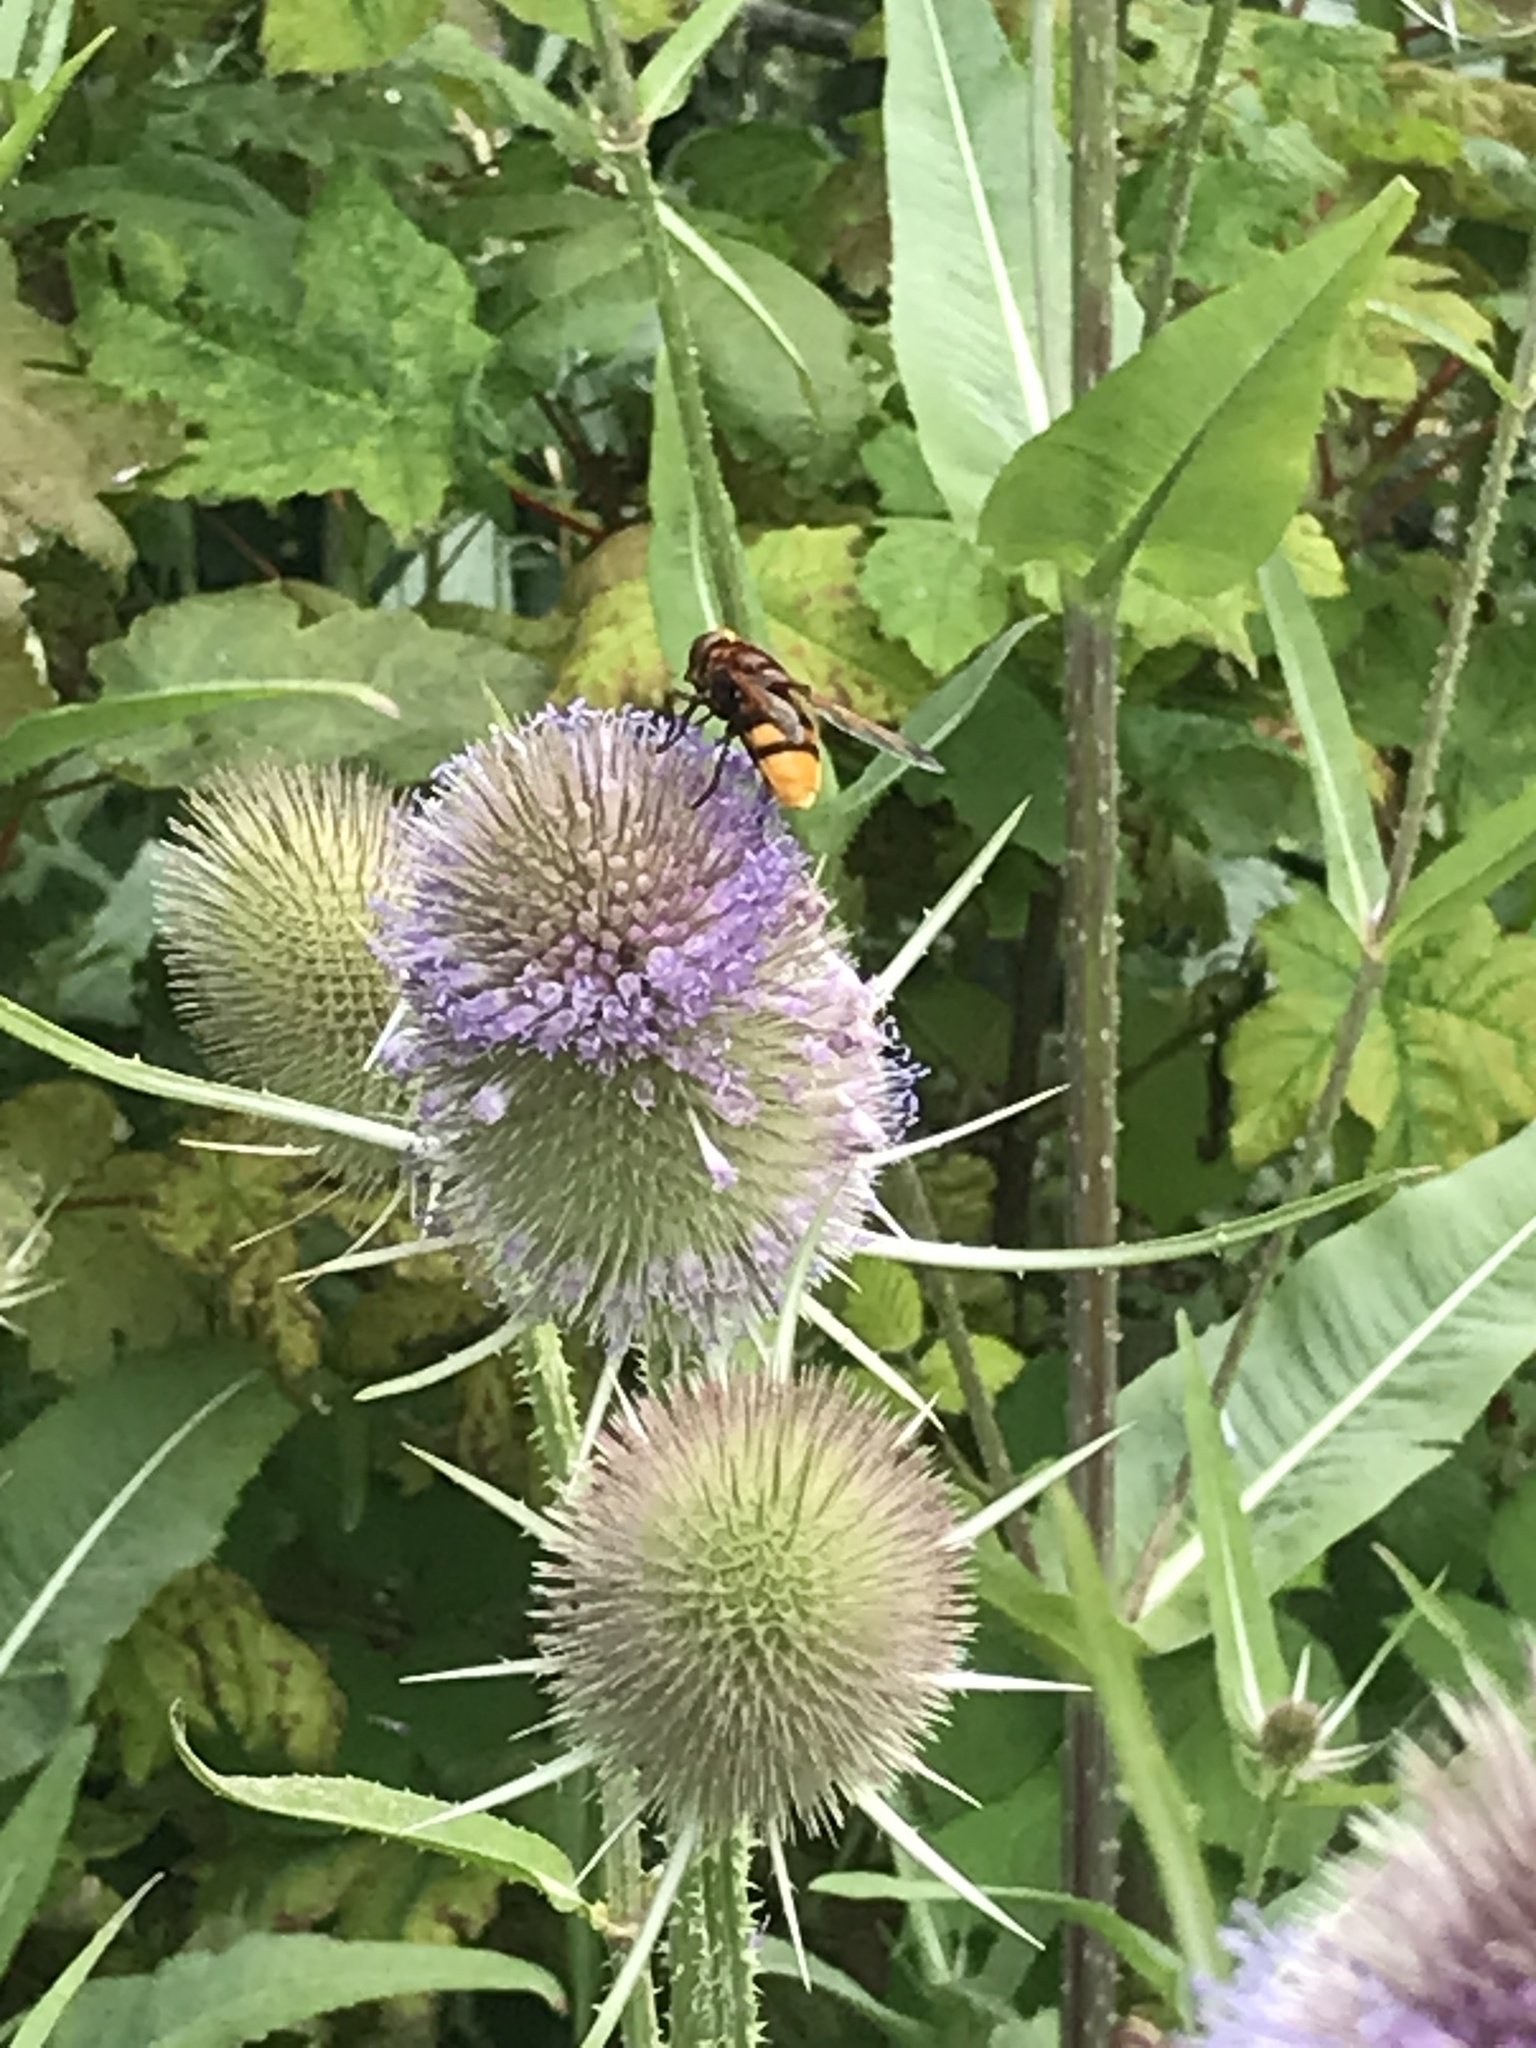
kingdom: Animalia
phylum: Arthropoda
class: Insecta
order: Diptera
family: Syrphidae
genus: Volucella
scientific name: Volucella zonaria
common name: Hornet hoverfly
